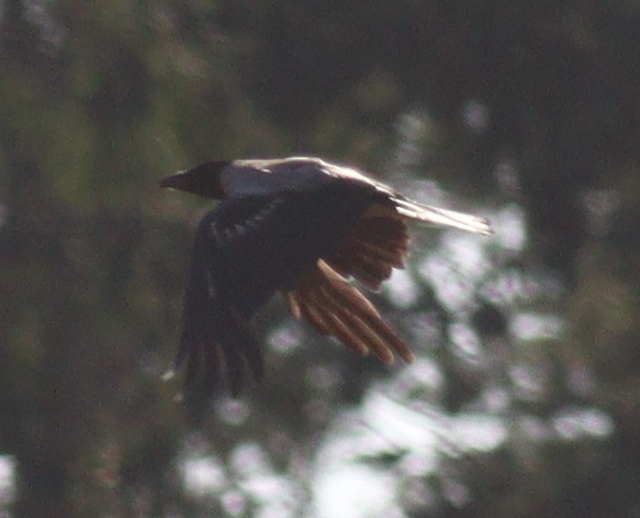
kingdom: Animalia
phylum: Chordata
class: Aves
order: Passeriformes
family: Corvidae
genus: Corvus
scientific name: Corvus cornix
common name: Hooded crow
